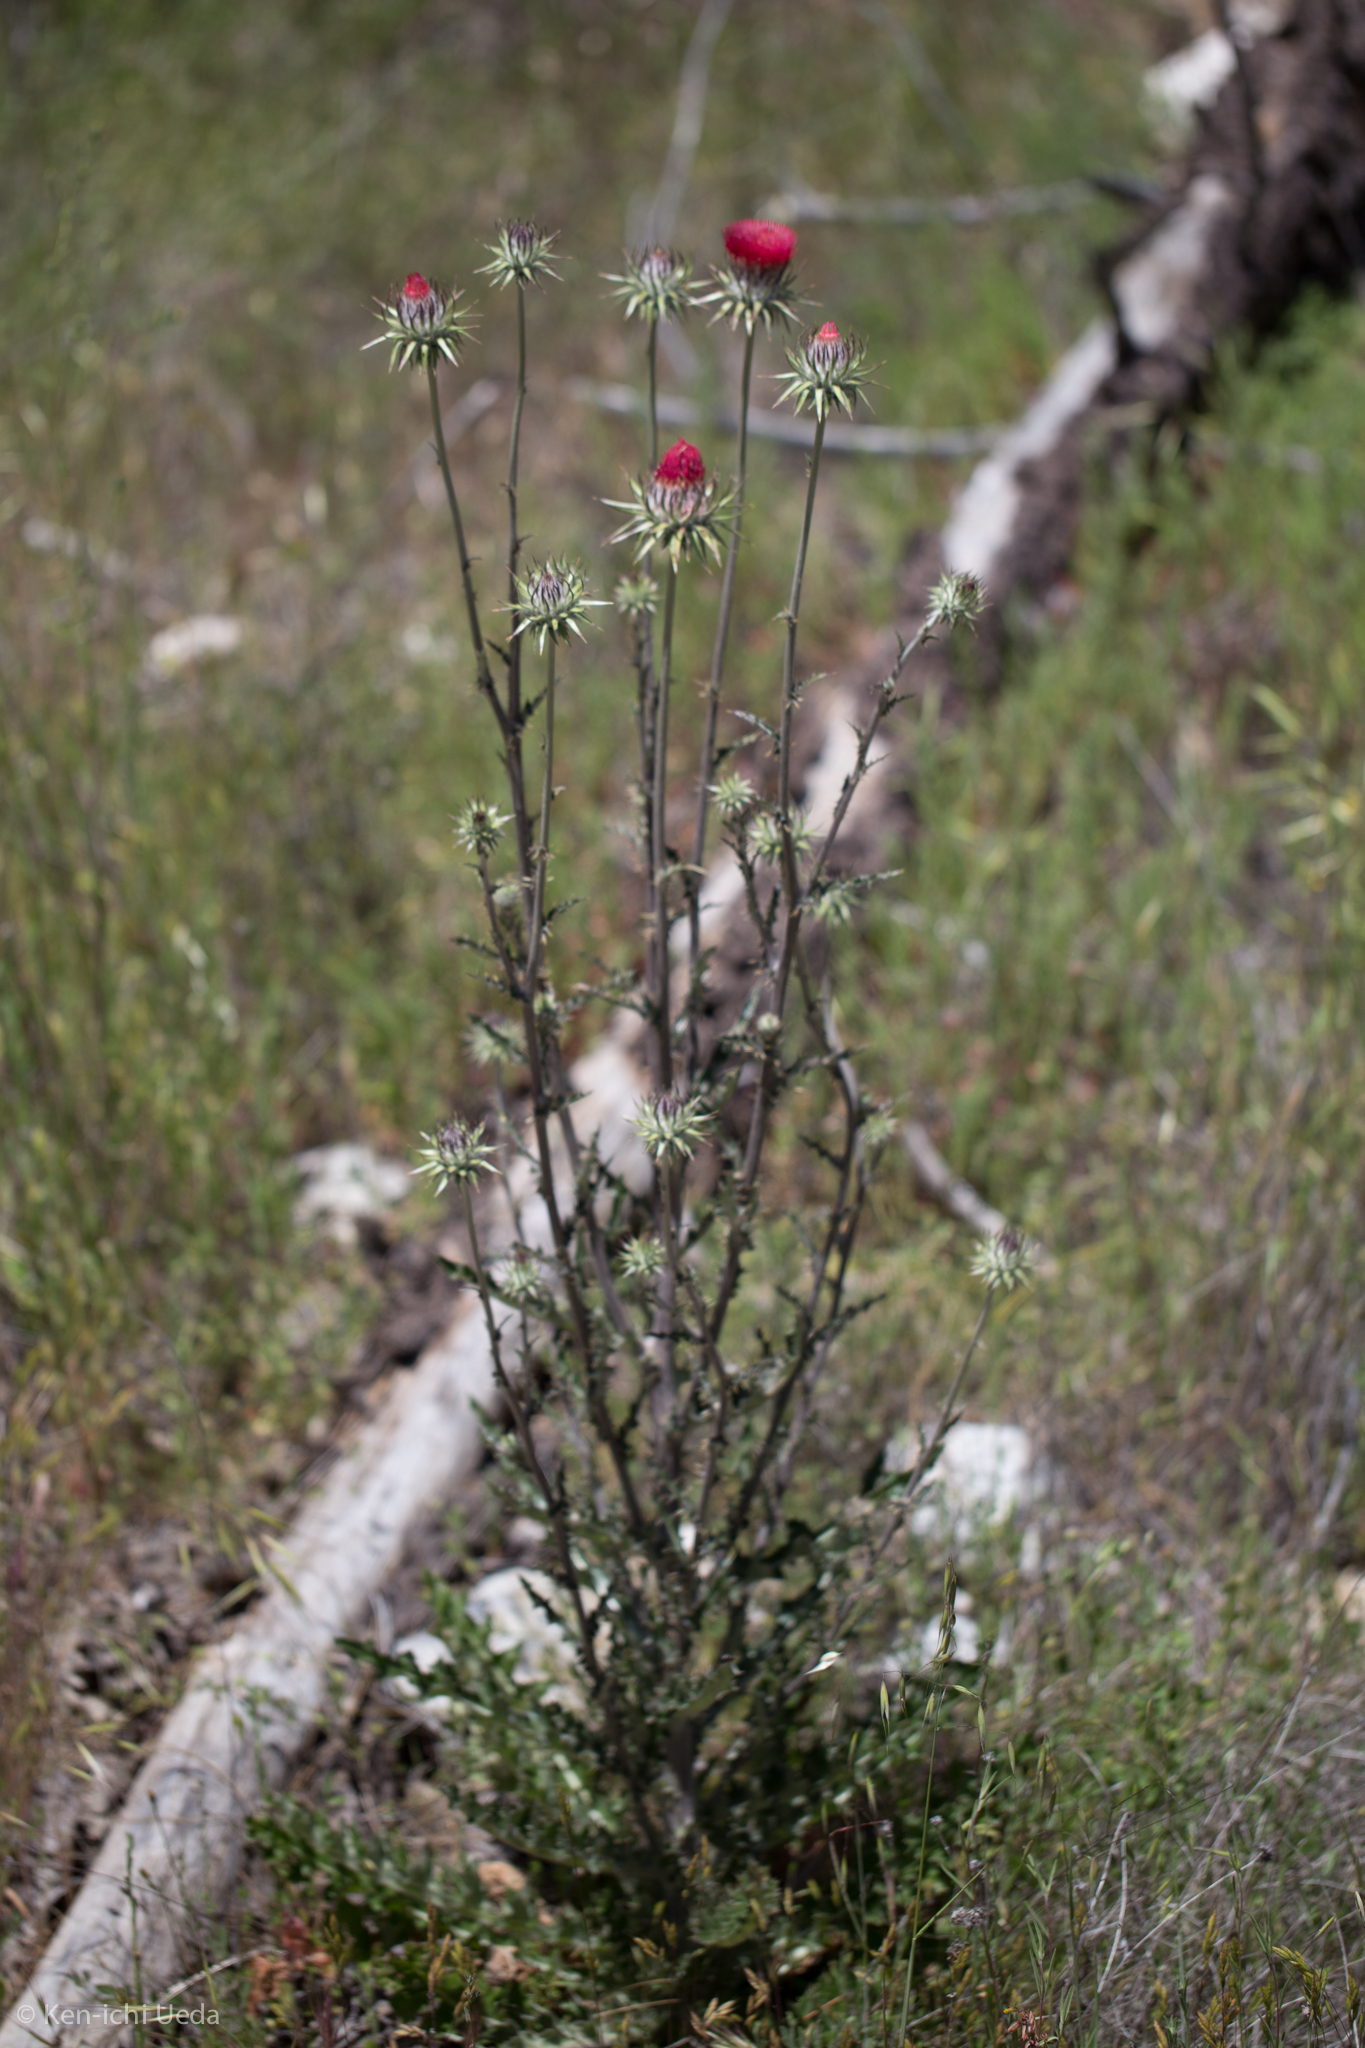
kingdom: Plantae
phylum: Tracheophyta
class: Magnoliopsida
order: Asterales
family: Asteraceae
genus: Cirsium
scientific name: Cirsium occidentale
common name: Western thistle
